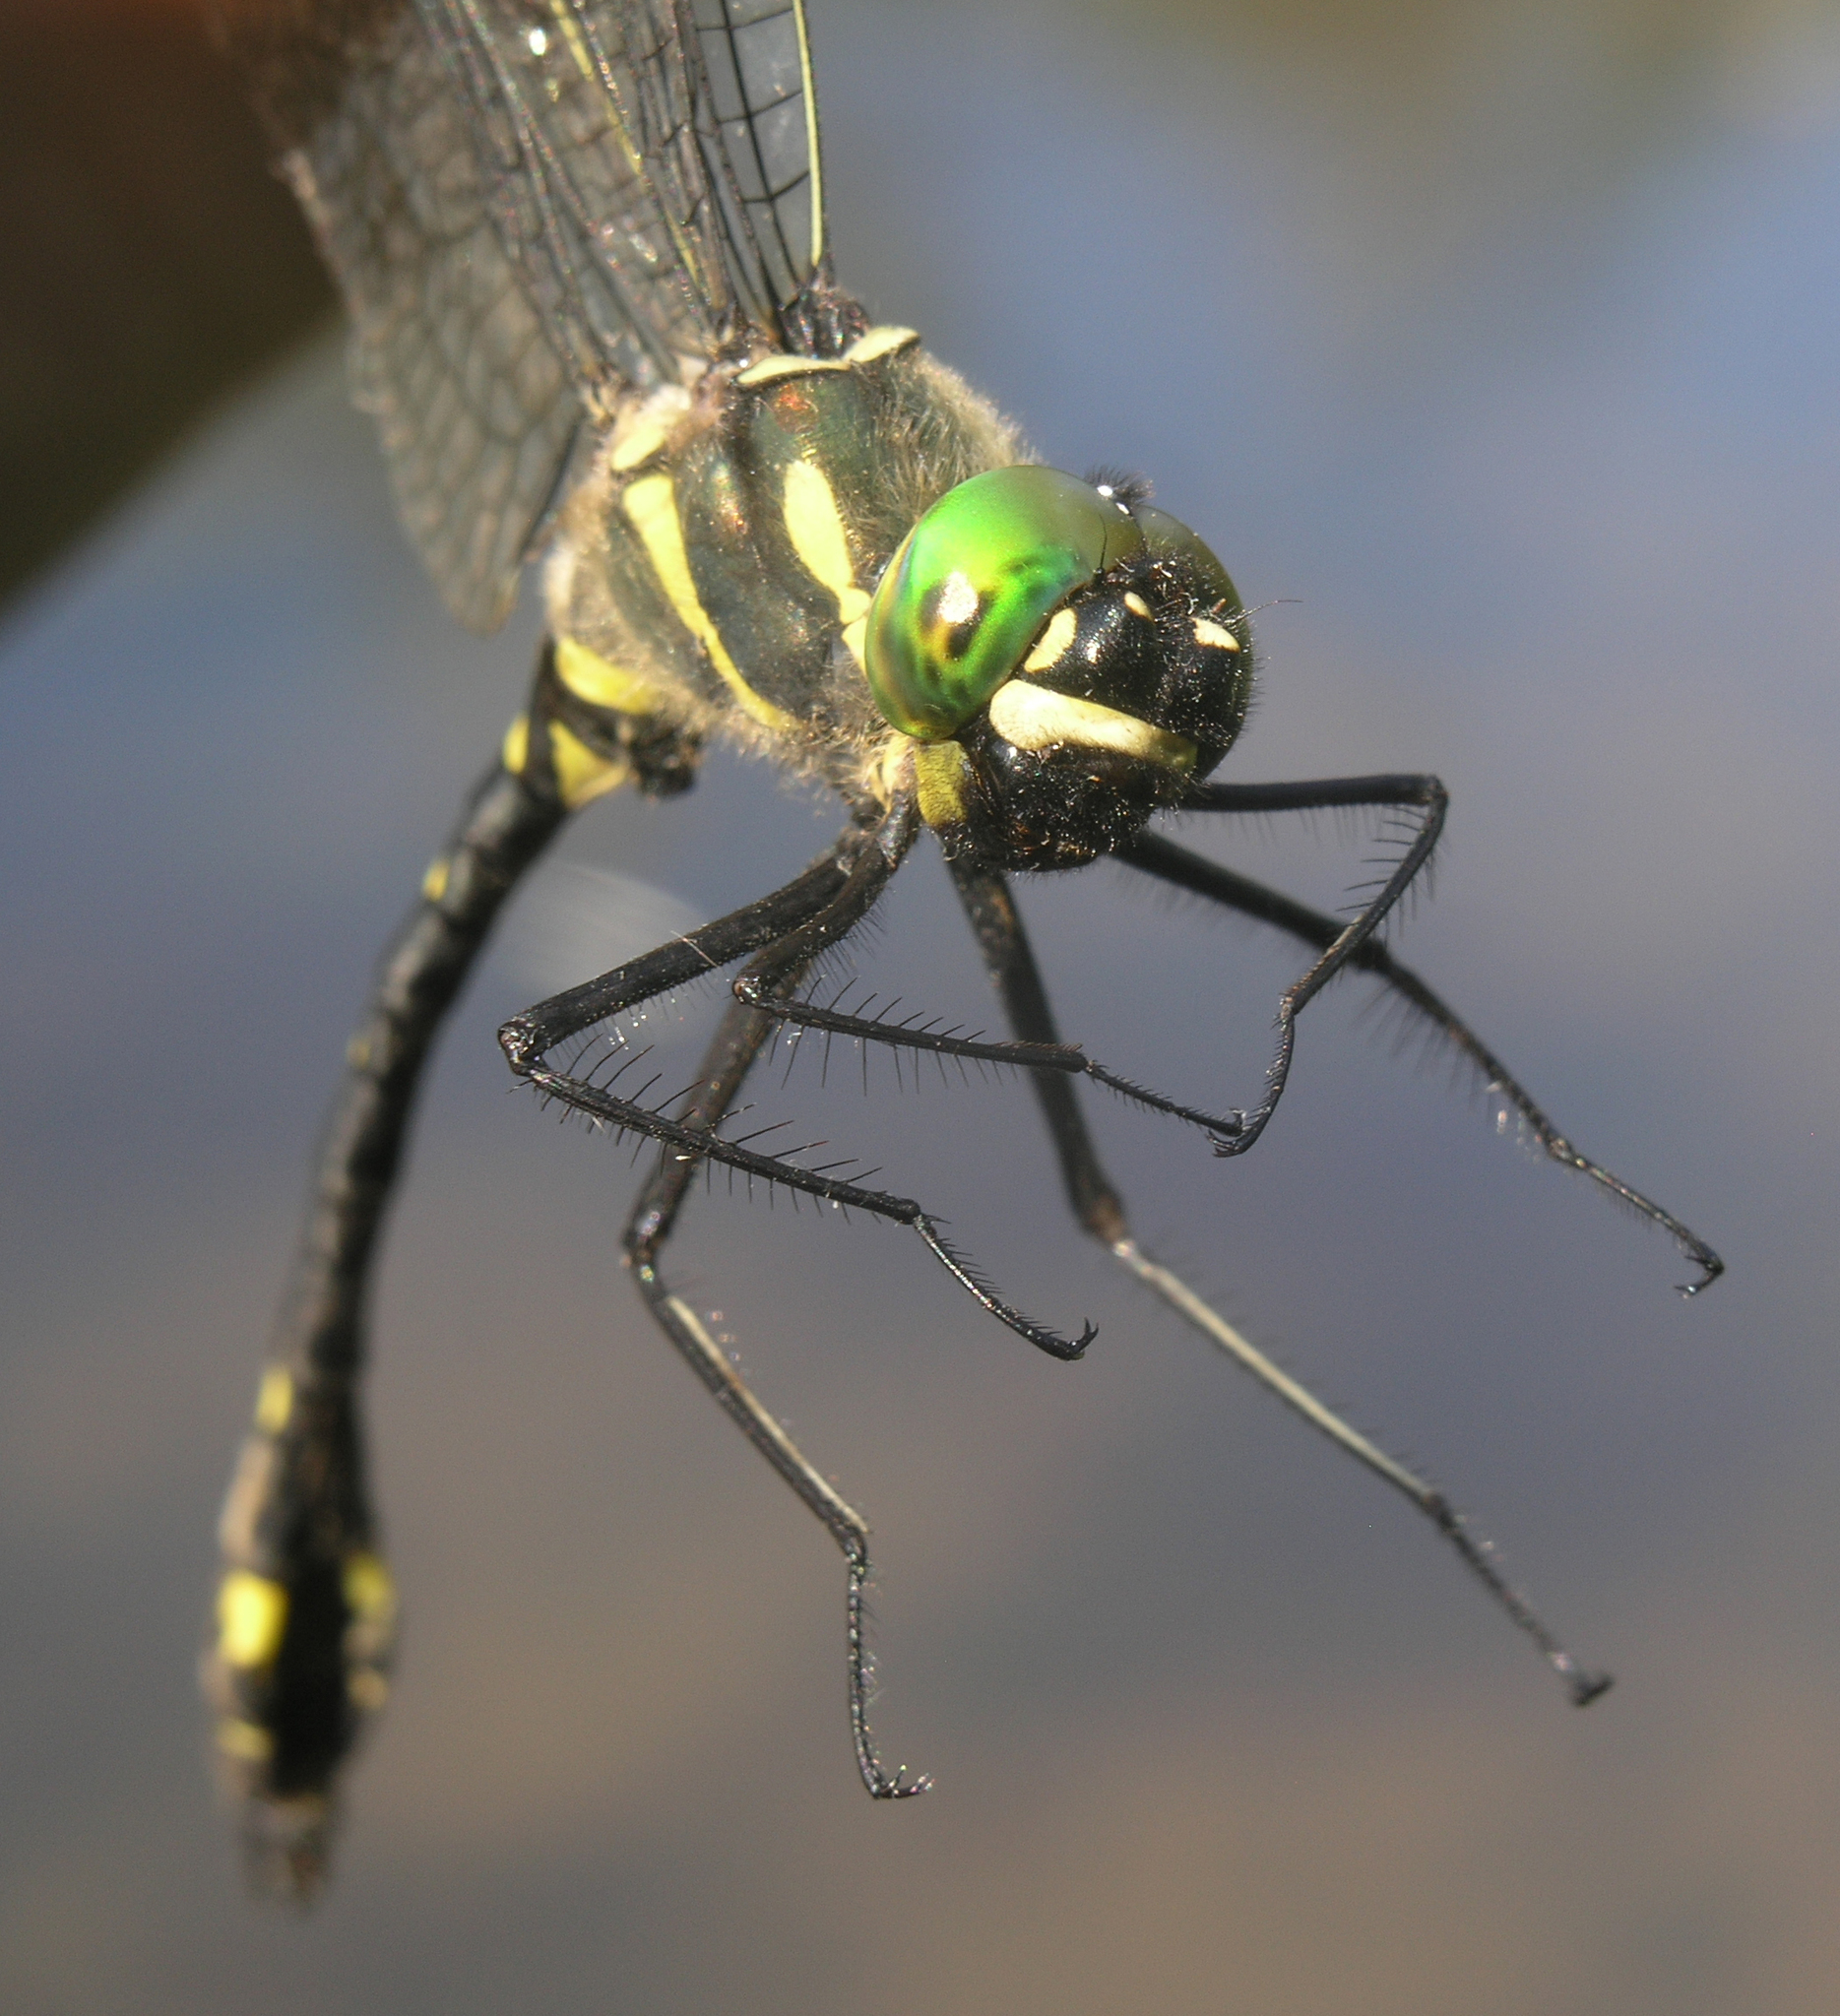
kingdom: Animalia
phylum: Arthropoda
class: Insecta
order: Odonata
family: Macromiidae
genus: Macromia
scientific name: Macromia daimoji
